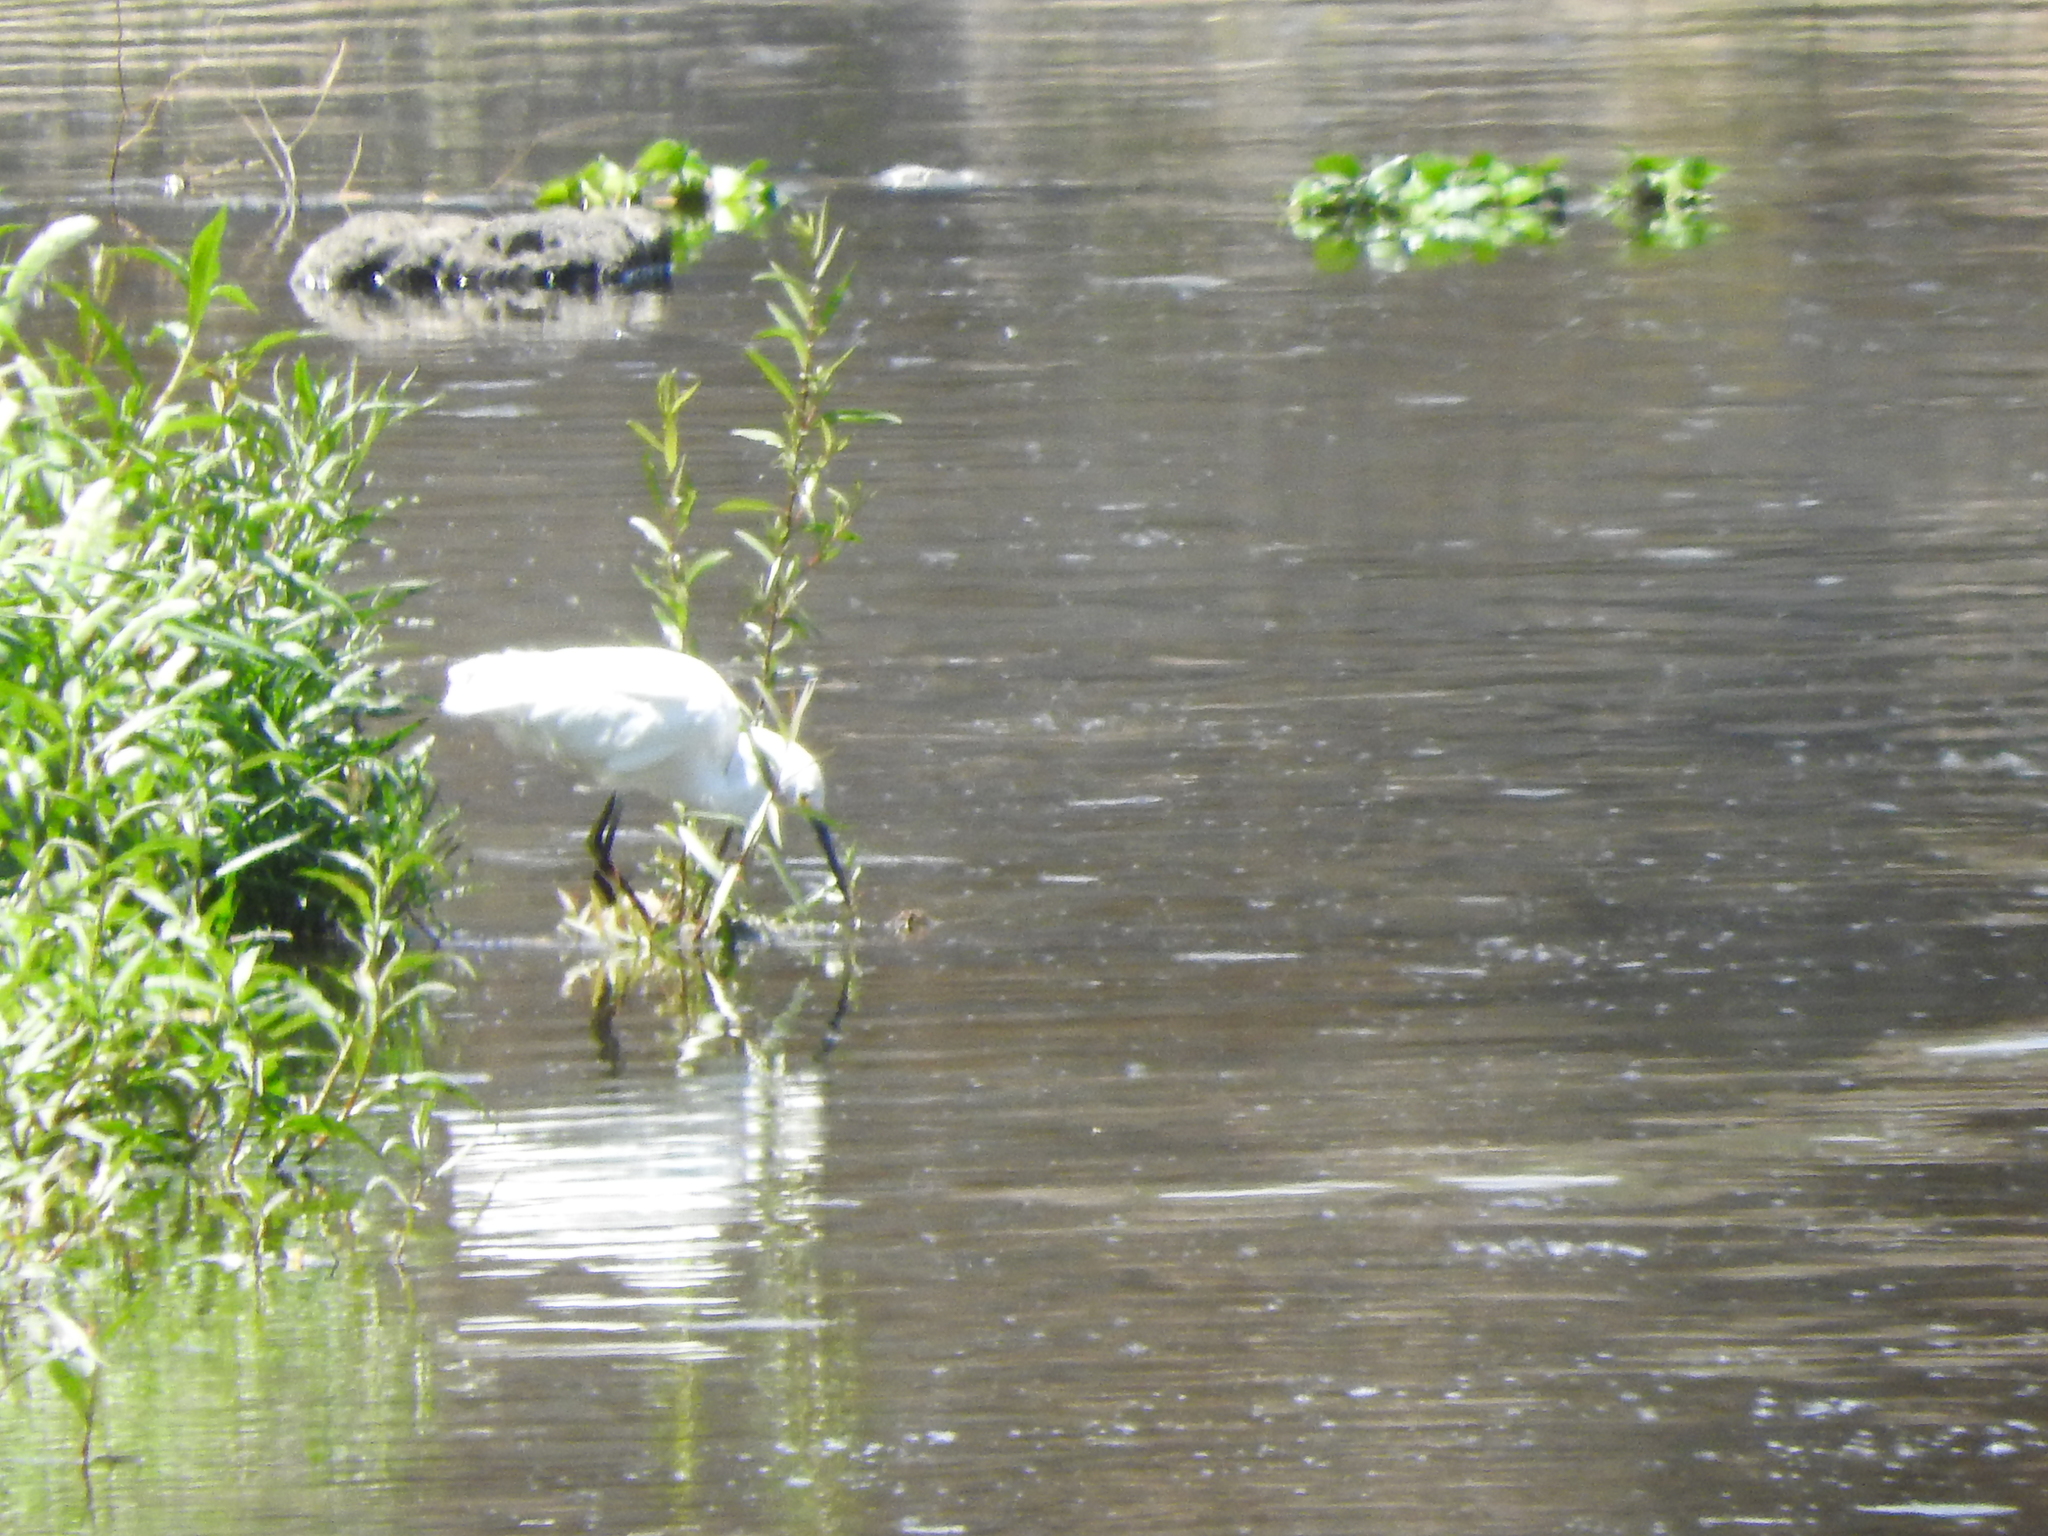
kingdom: Animalia
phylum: Chordata
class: Aves
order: Pelecaniformes
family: Ardeidae
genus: Egretta
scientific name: Egretta thula
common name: Snowy egret
